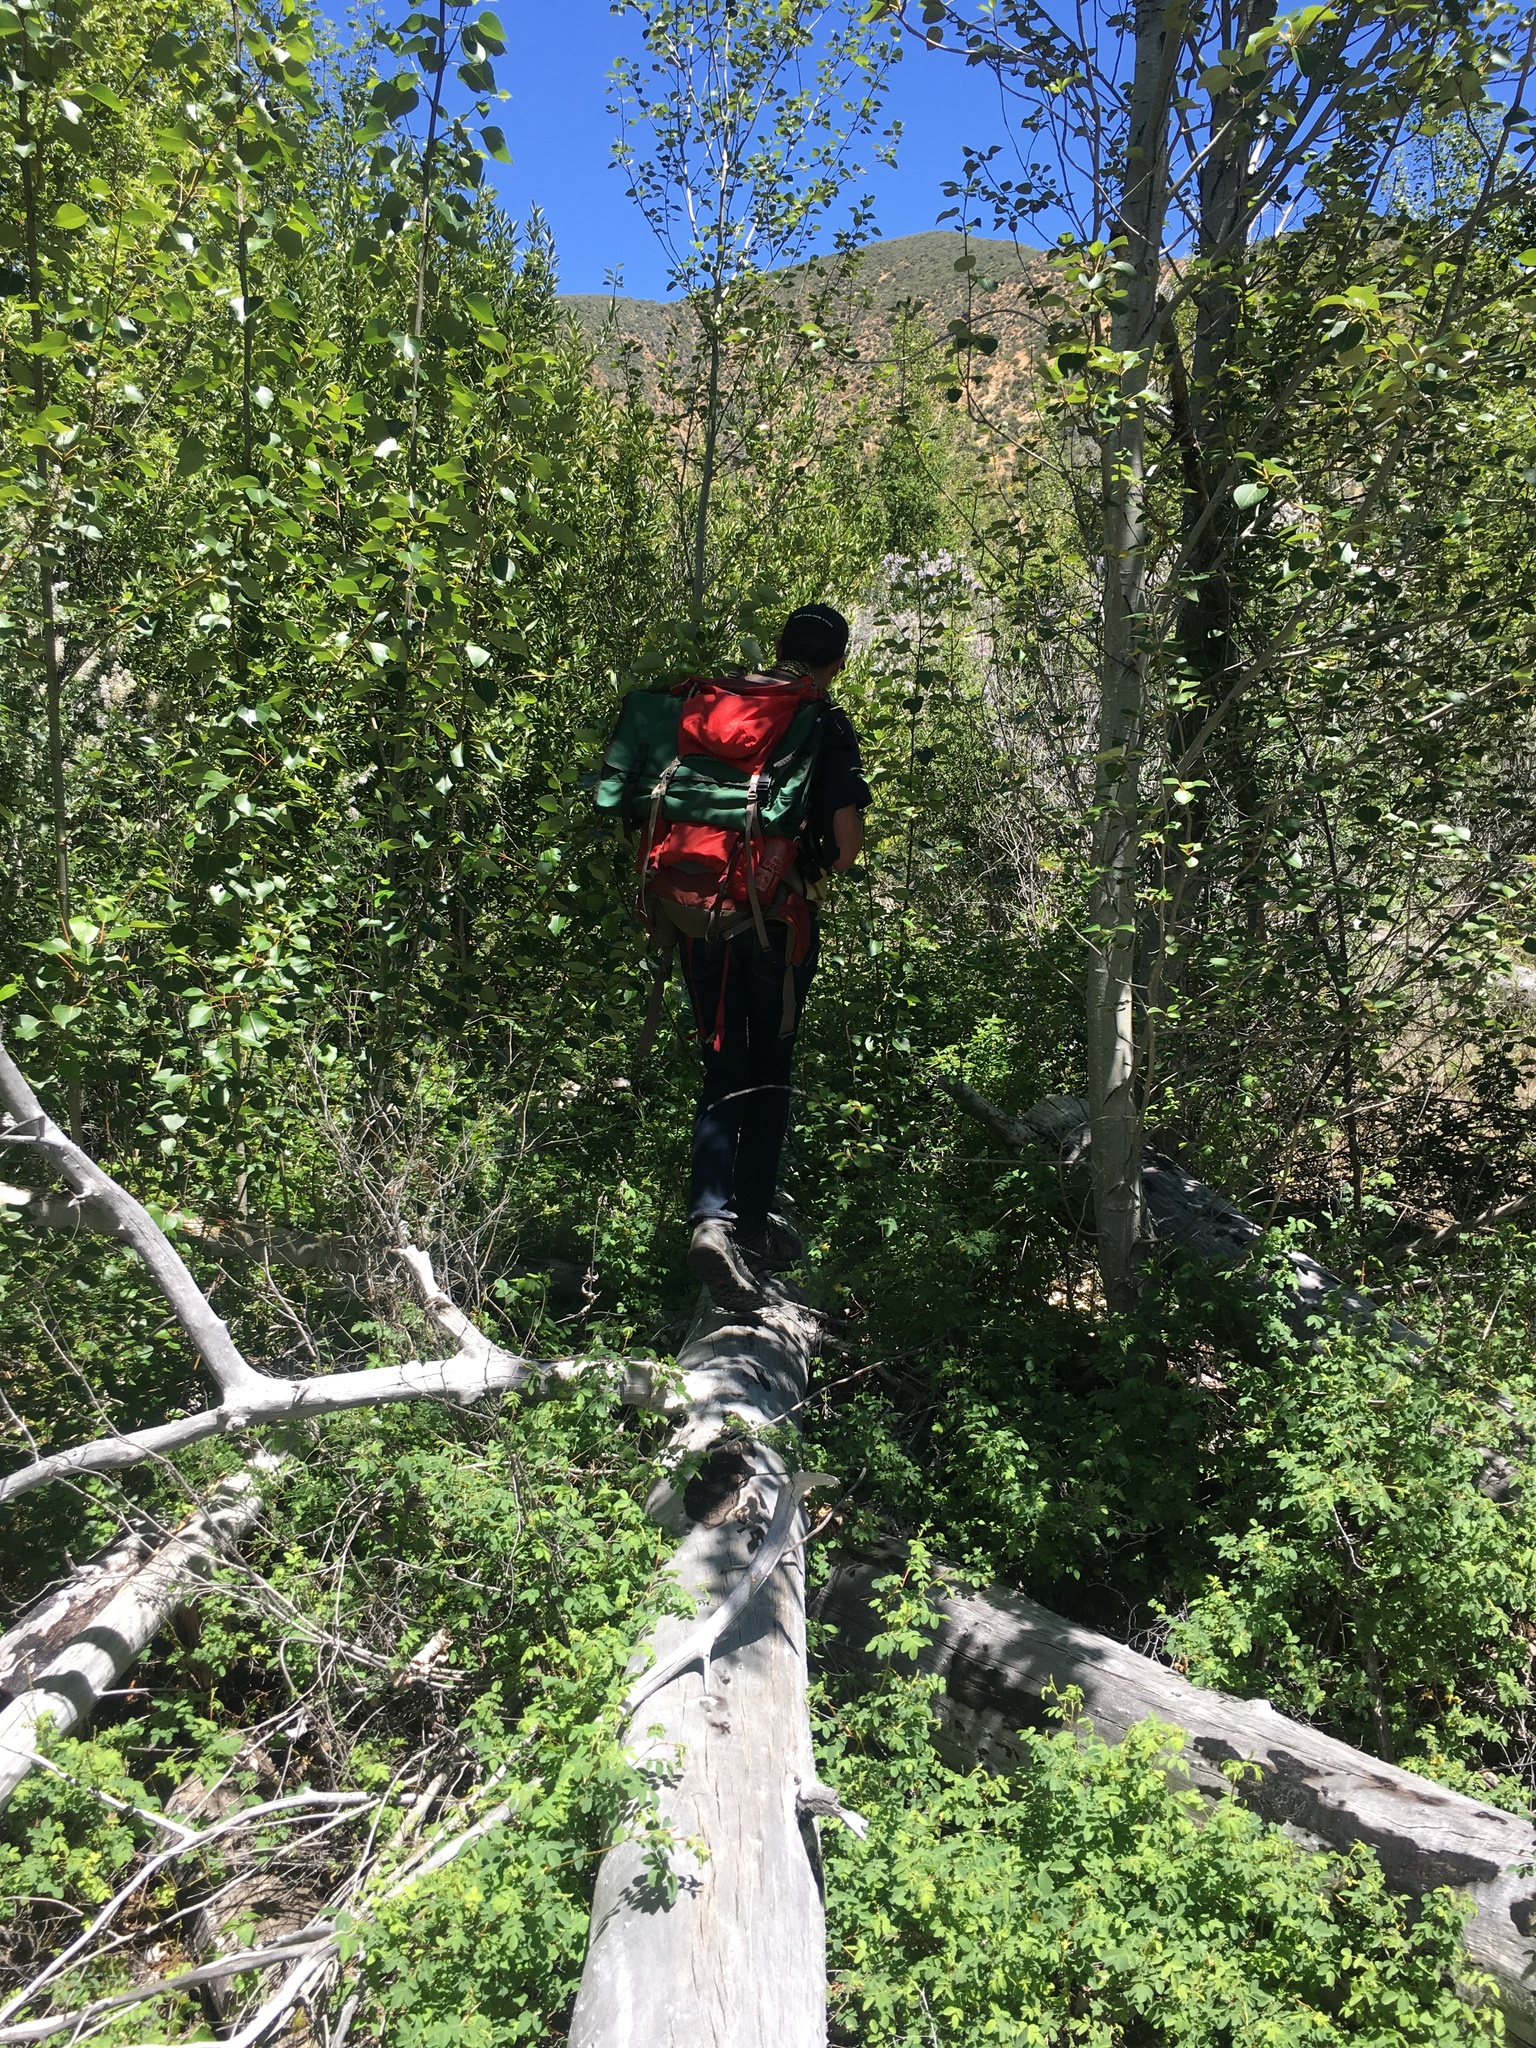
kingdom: Plantae
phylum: Tracheophyta
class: Magnoliopsida
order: Malpighiales
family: Salicaceae
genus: Populus
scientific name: Populus trichocarpa
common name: Black cottonwood
